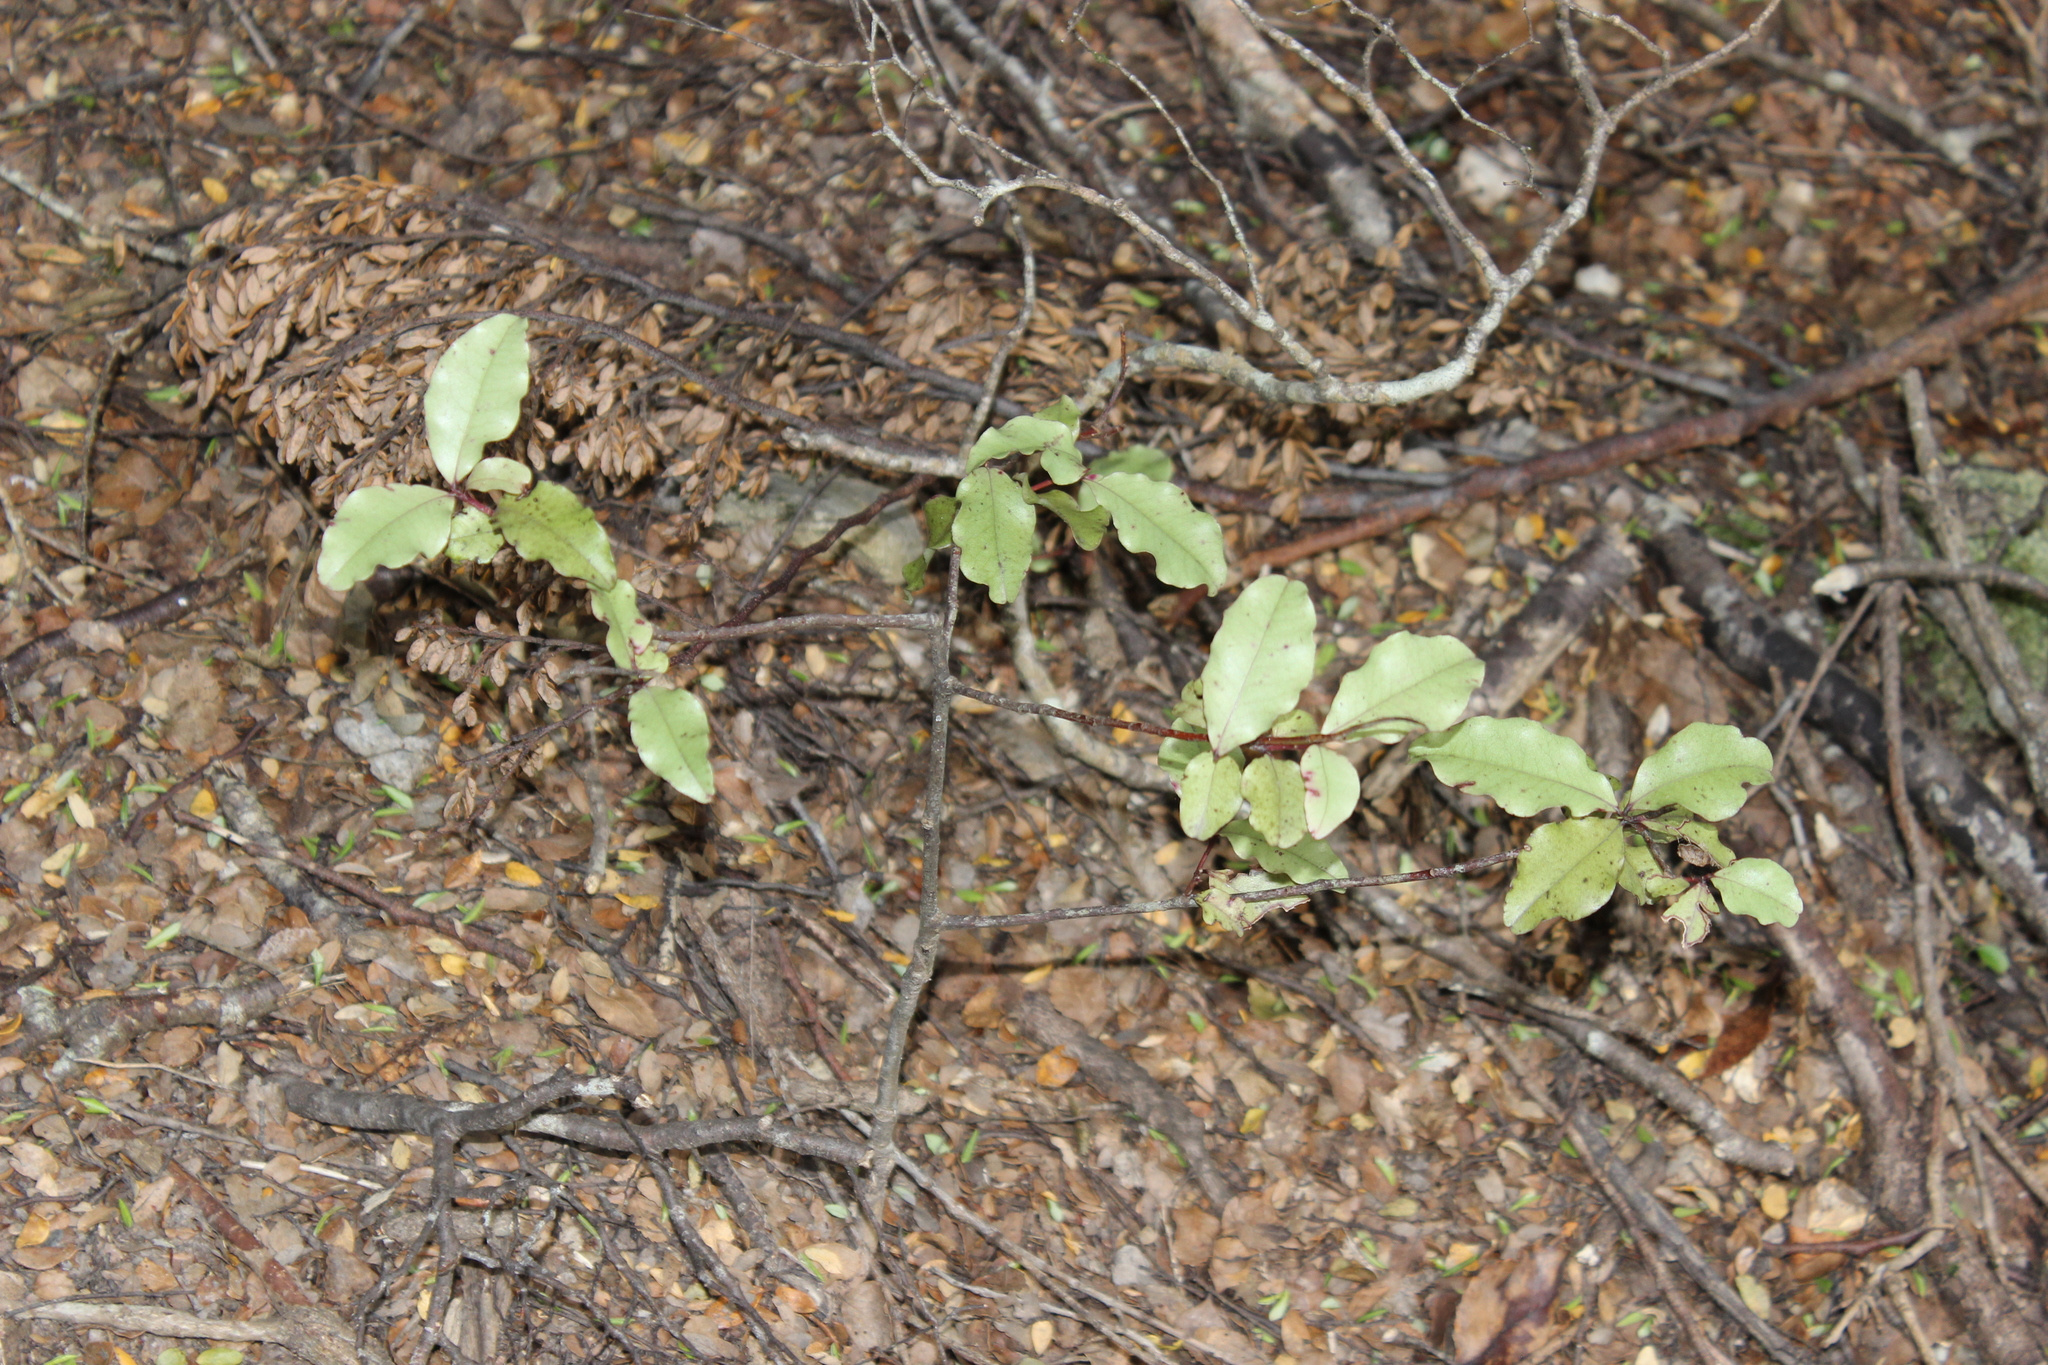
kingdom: Plantae
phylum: Tracheophyta
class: Magnoliopsida
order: Ericales
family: Primulaceae
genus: Myrsine
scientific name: Myrsine australis
